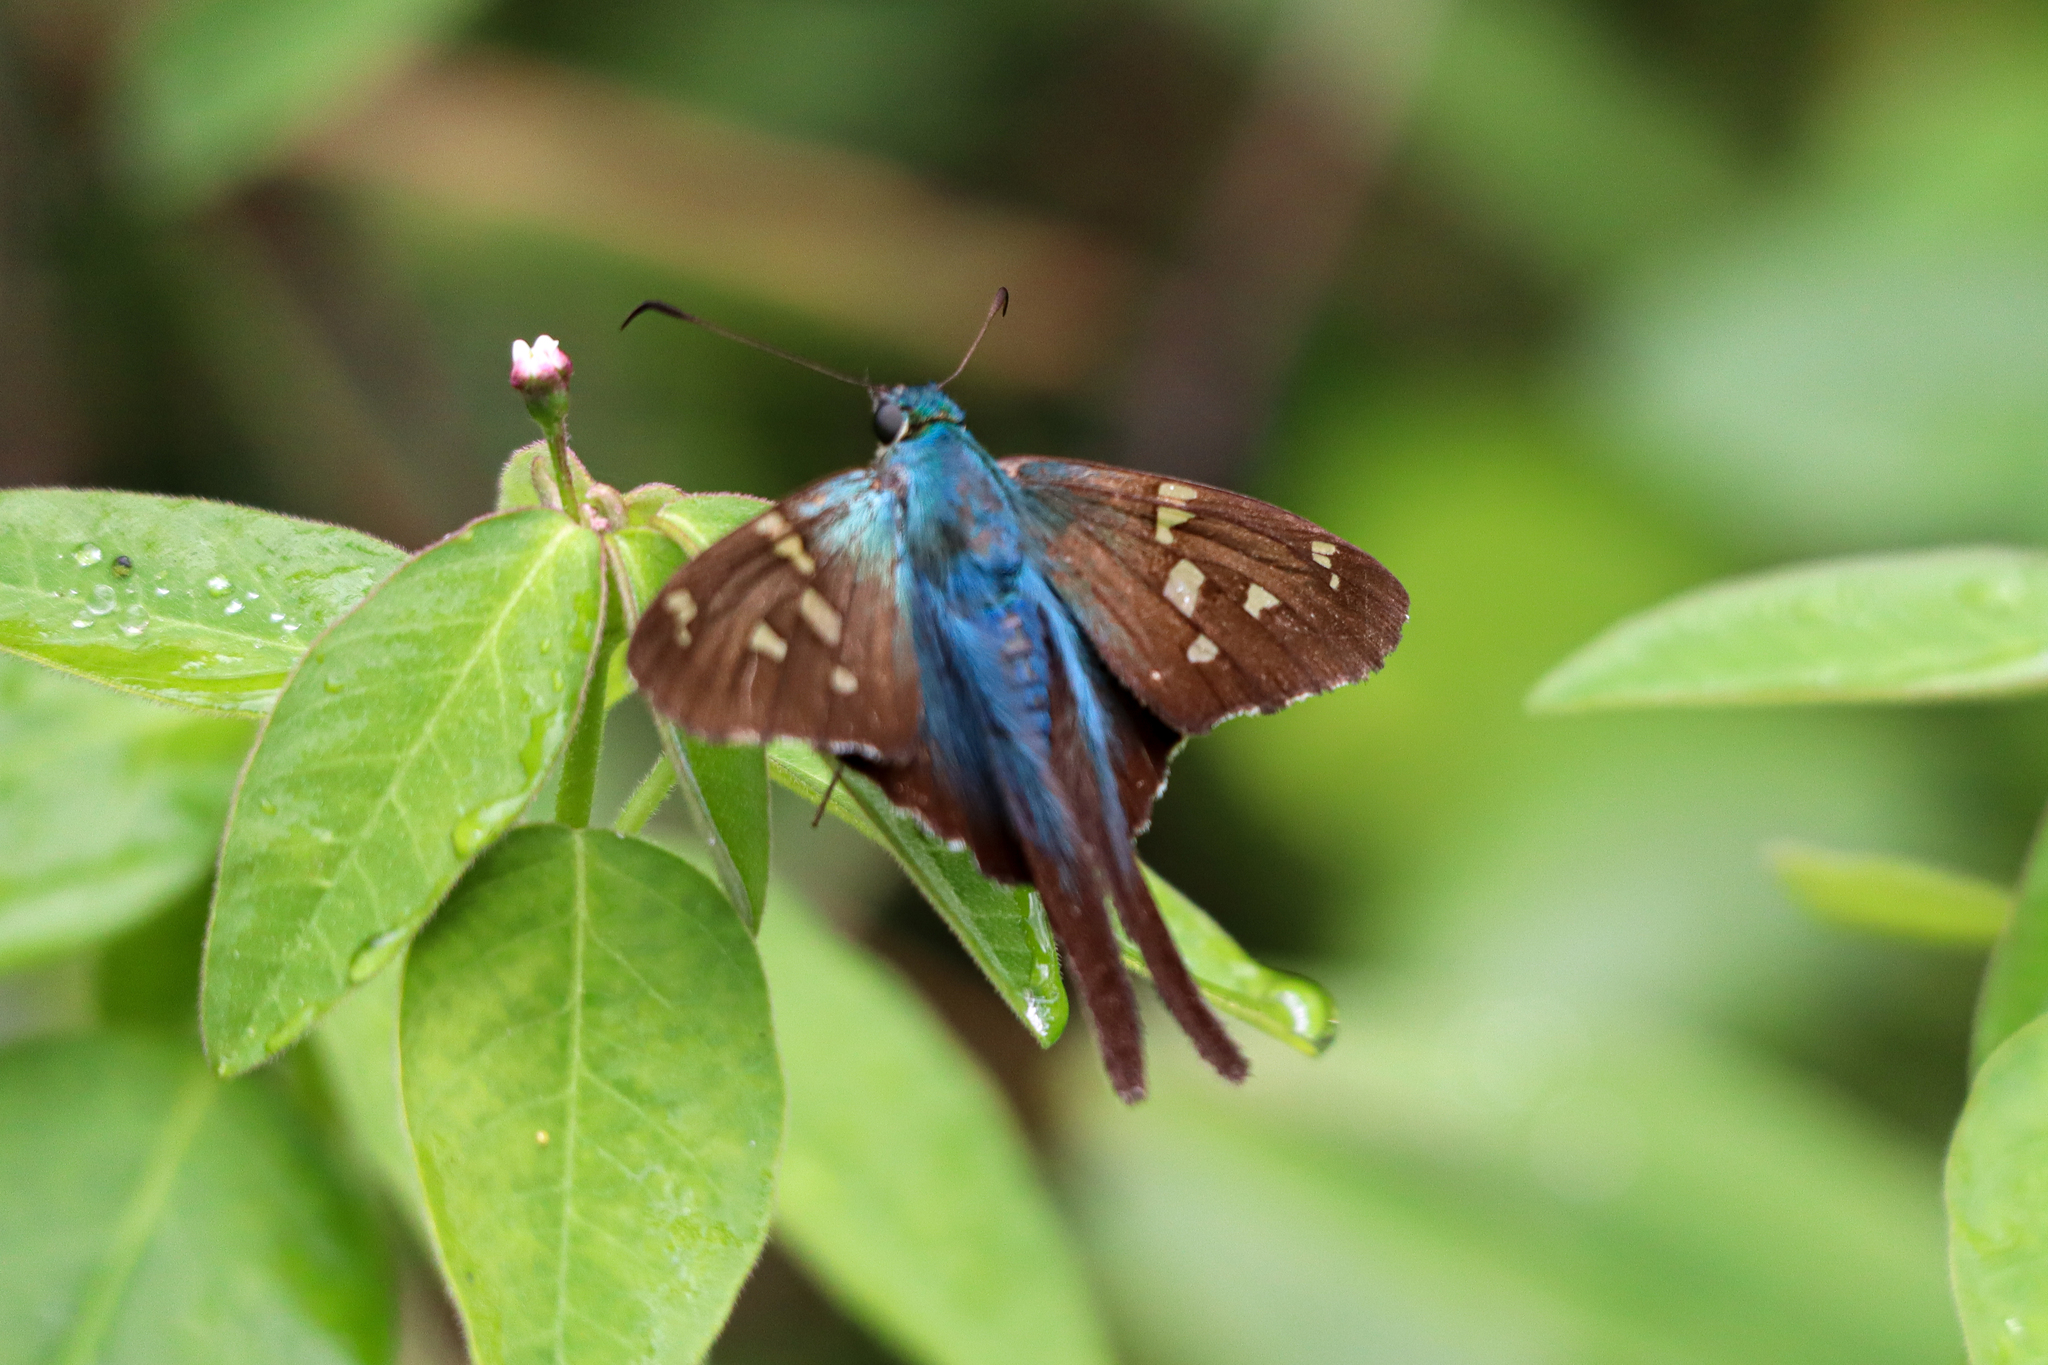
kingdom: Animalia
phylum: Arthropoda
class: Insecta
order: Lepidoptera
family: Hesperiidae
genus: Urbanus
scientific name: Urbanus proteus
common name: Long-tailed skipper
